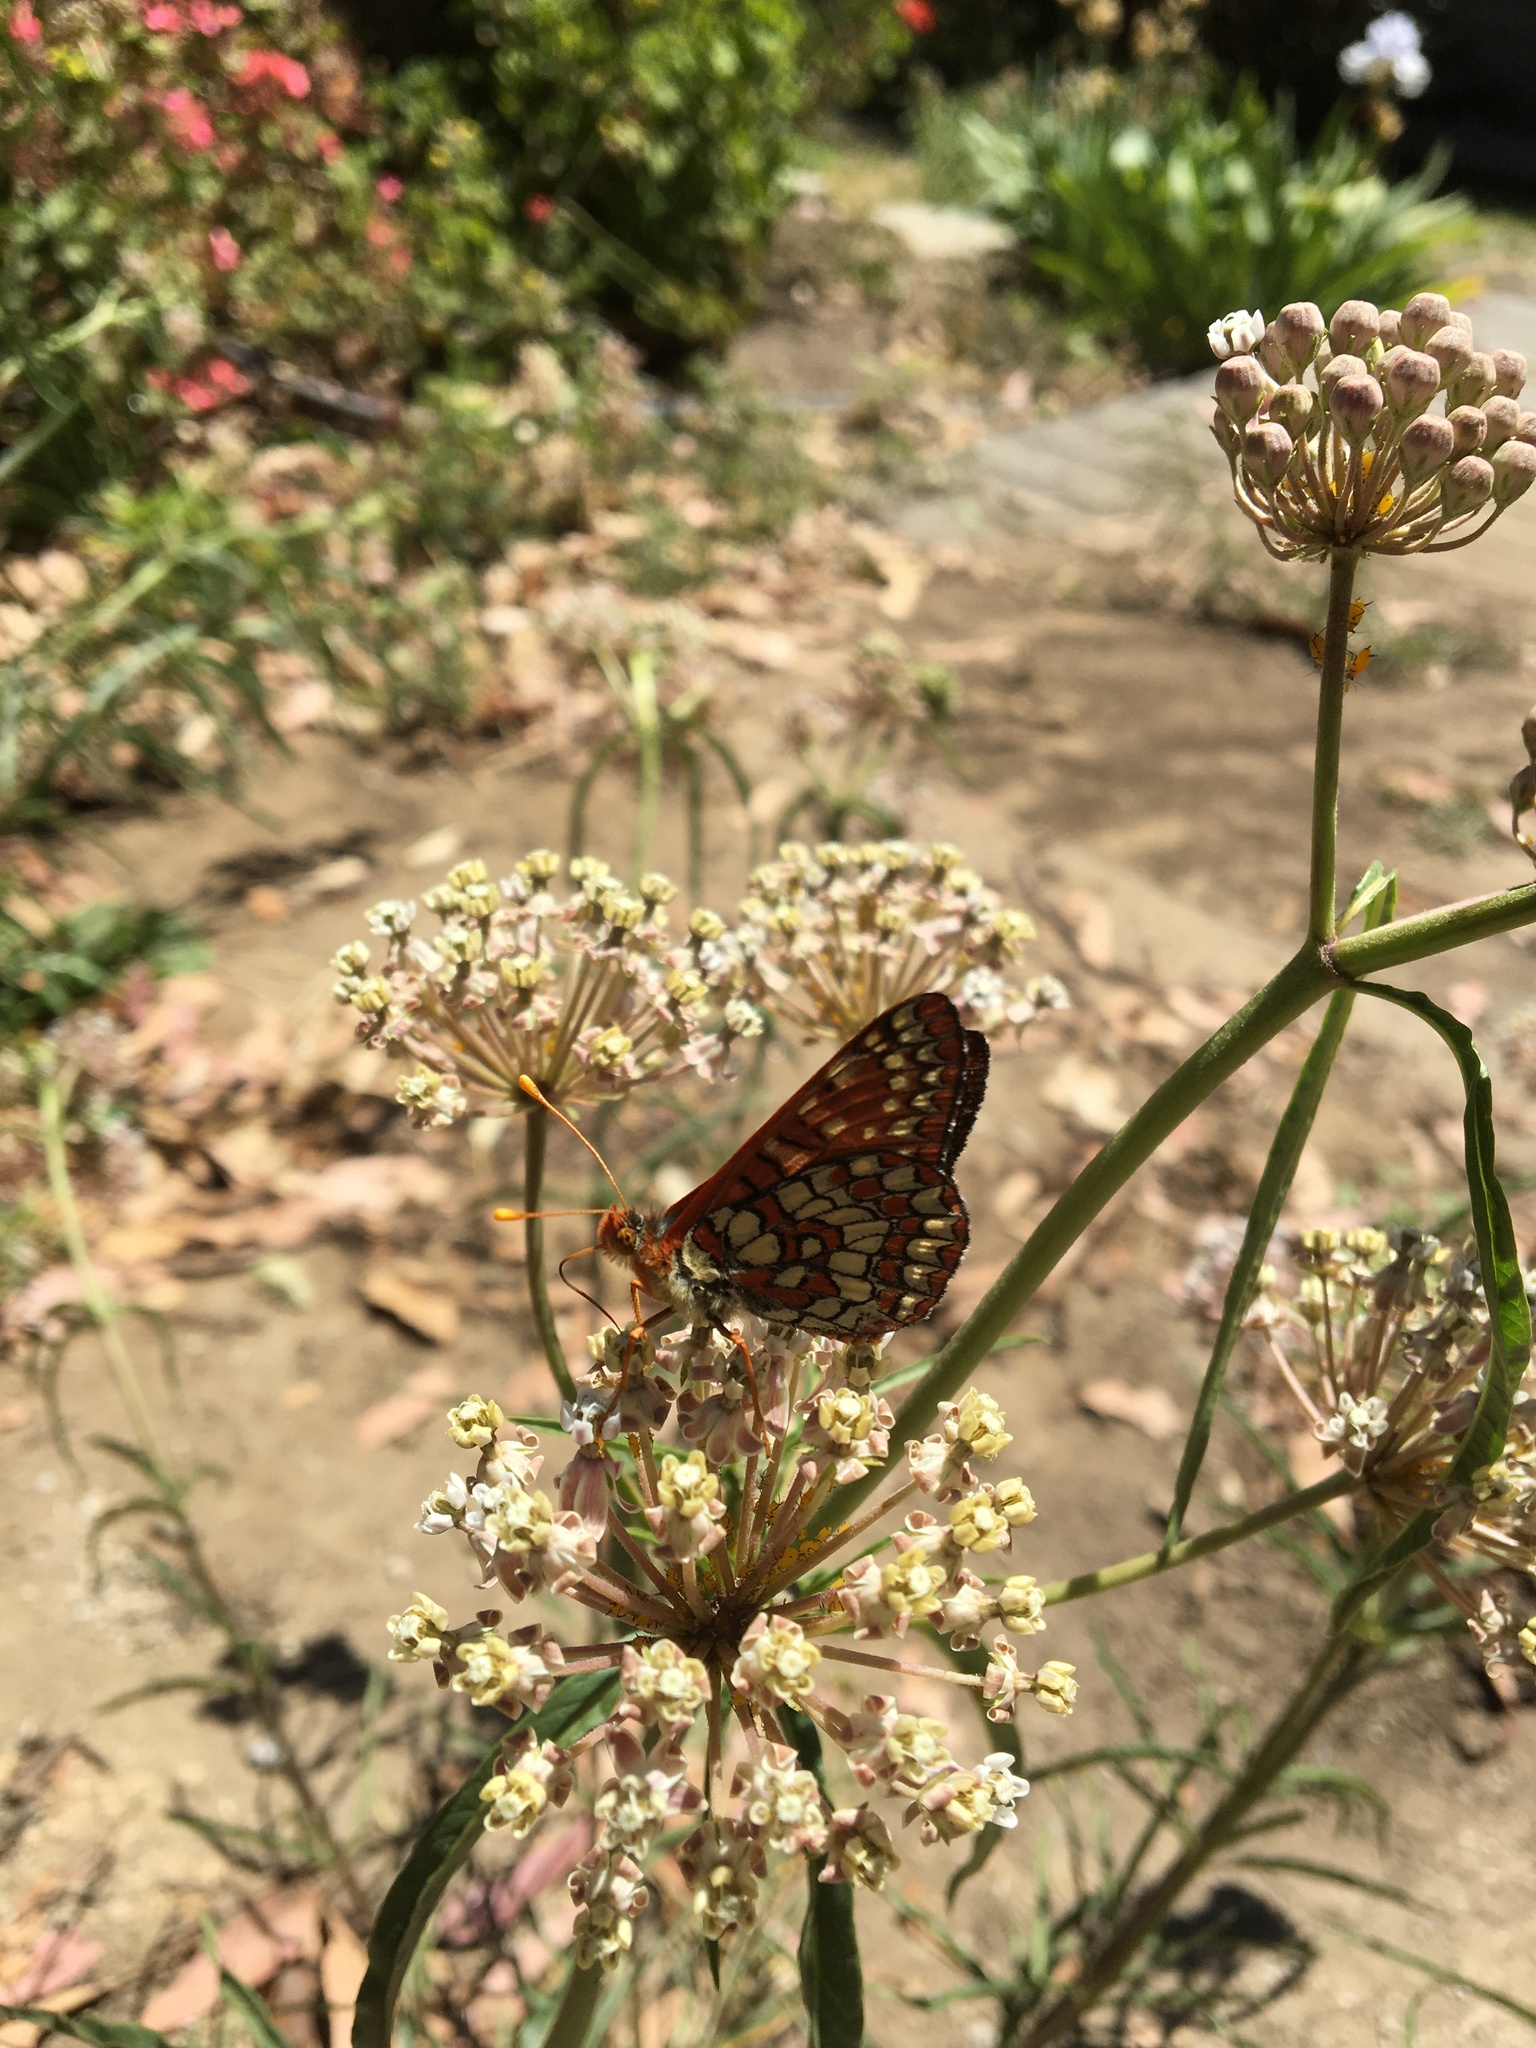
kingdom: Animalia
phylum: Arthropoda
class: Insecta
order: Lepidoptera
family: Nymphalidae
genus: Occidryas
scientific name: Occidryas chalcedona
